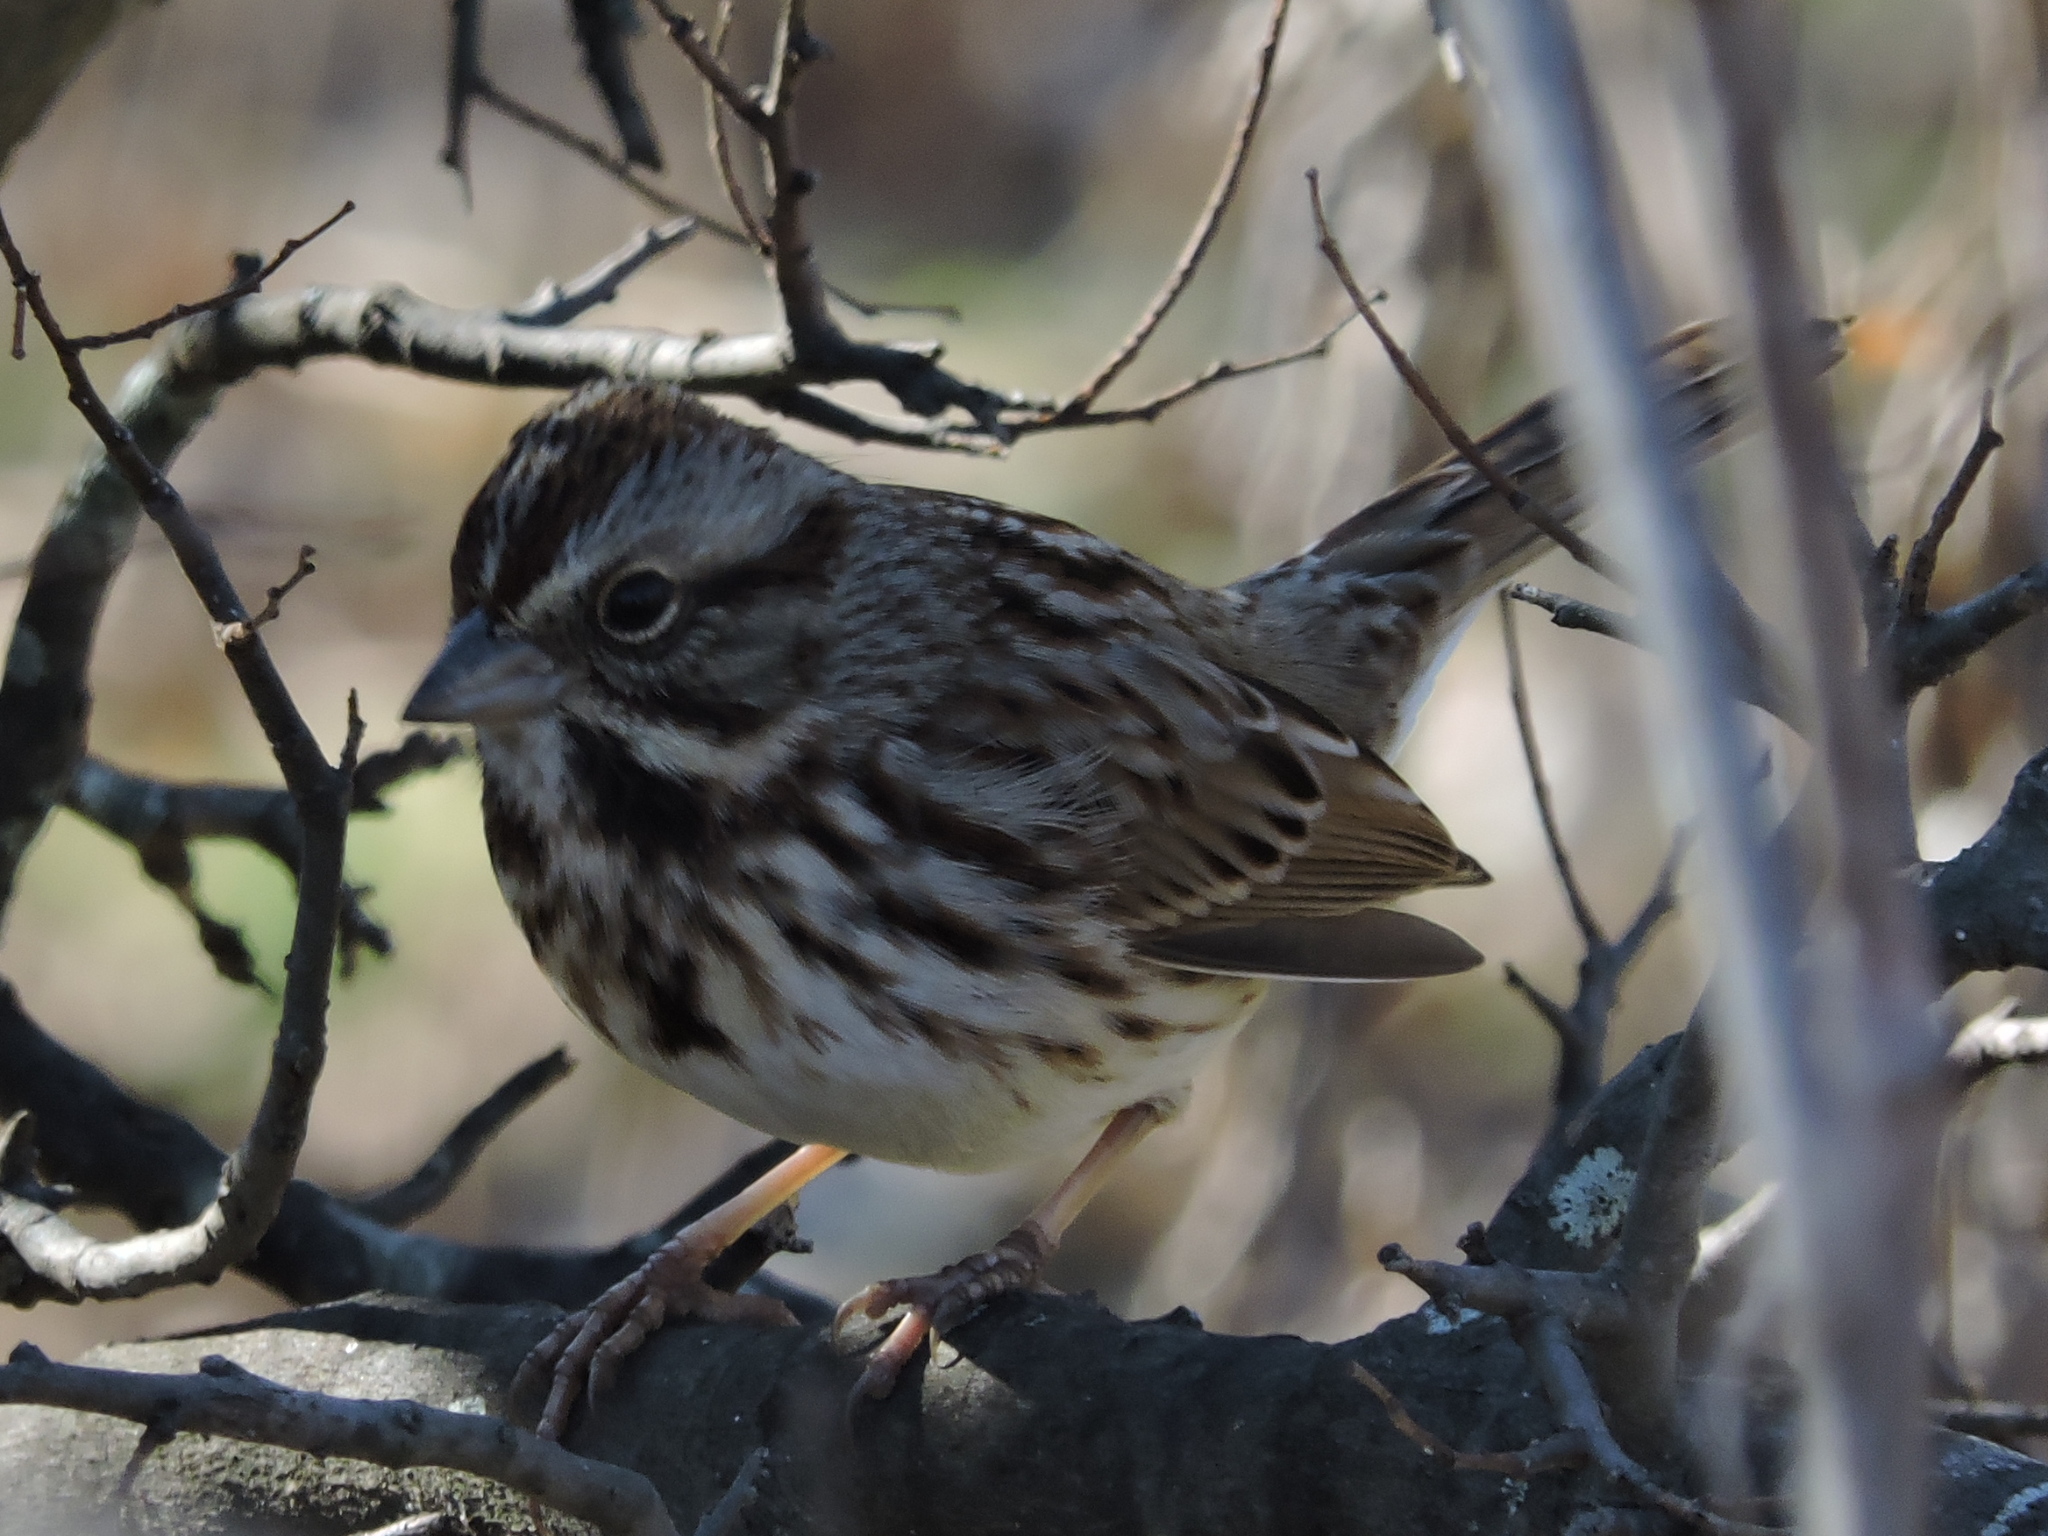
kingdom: Animalia
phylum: Chordata
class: Aves
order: Passeriformes
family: Passerellidae
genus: Melospiza
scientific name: Melospiza melodia
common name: Song sparrow
